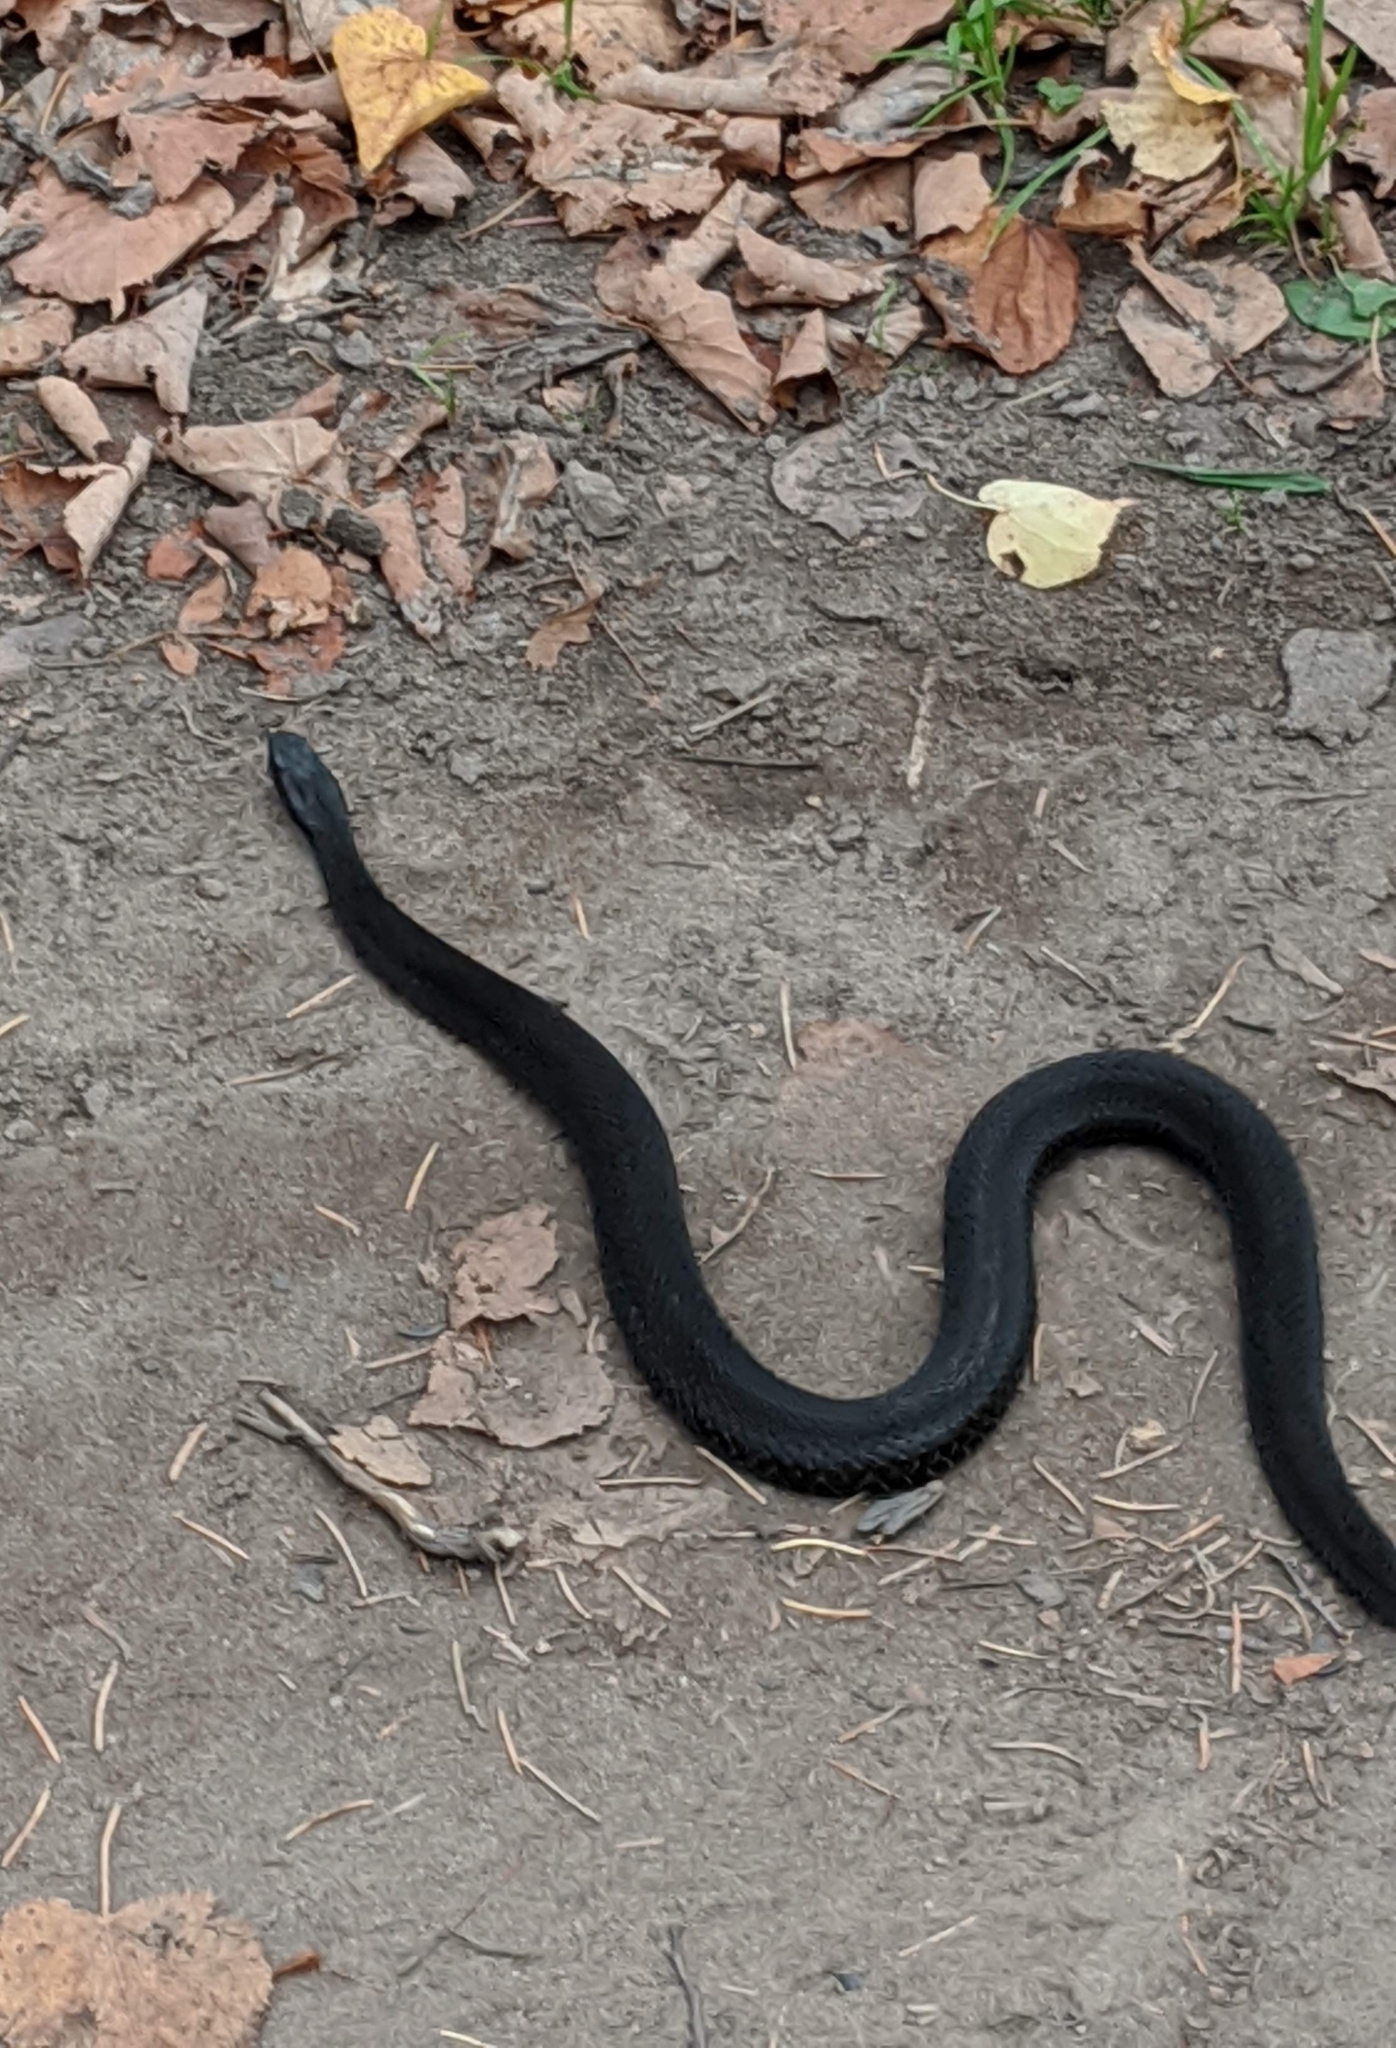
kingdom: Animalia
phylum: Chordata
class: Squamata
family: Viperidae
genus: Vipera
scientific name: Vipera berus
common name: Adder
